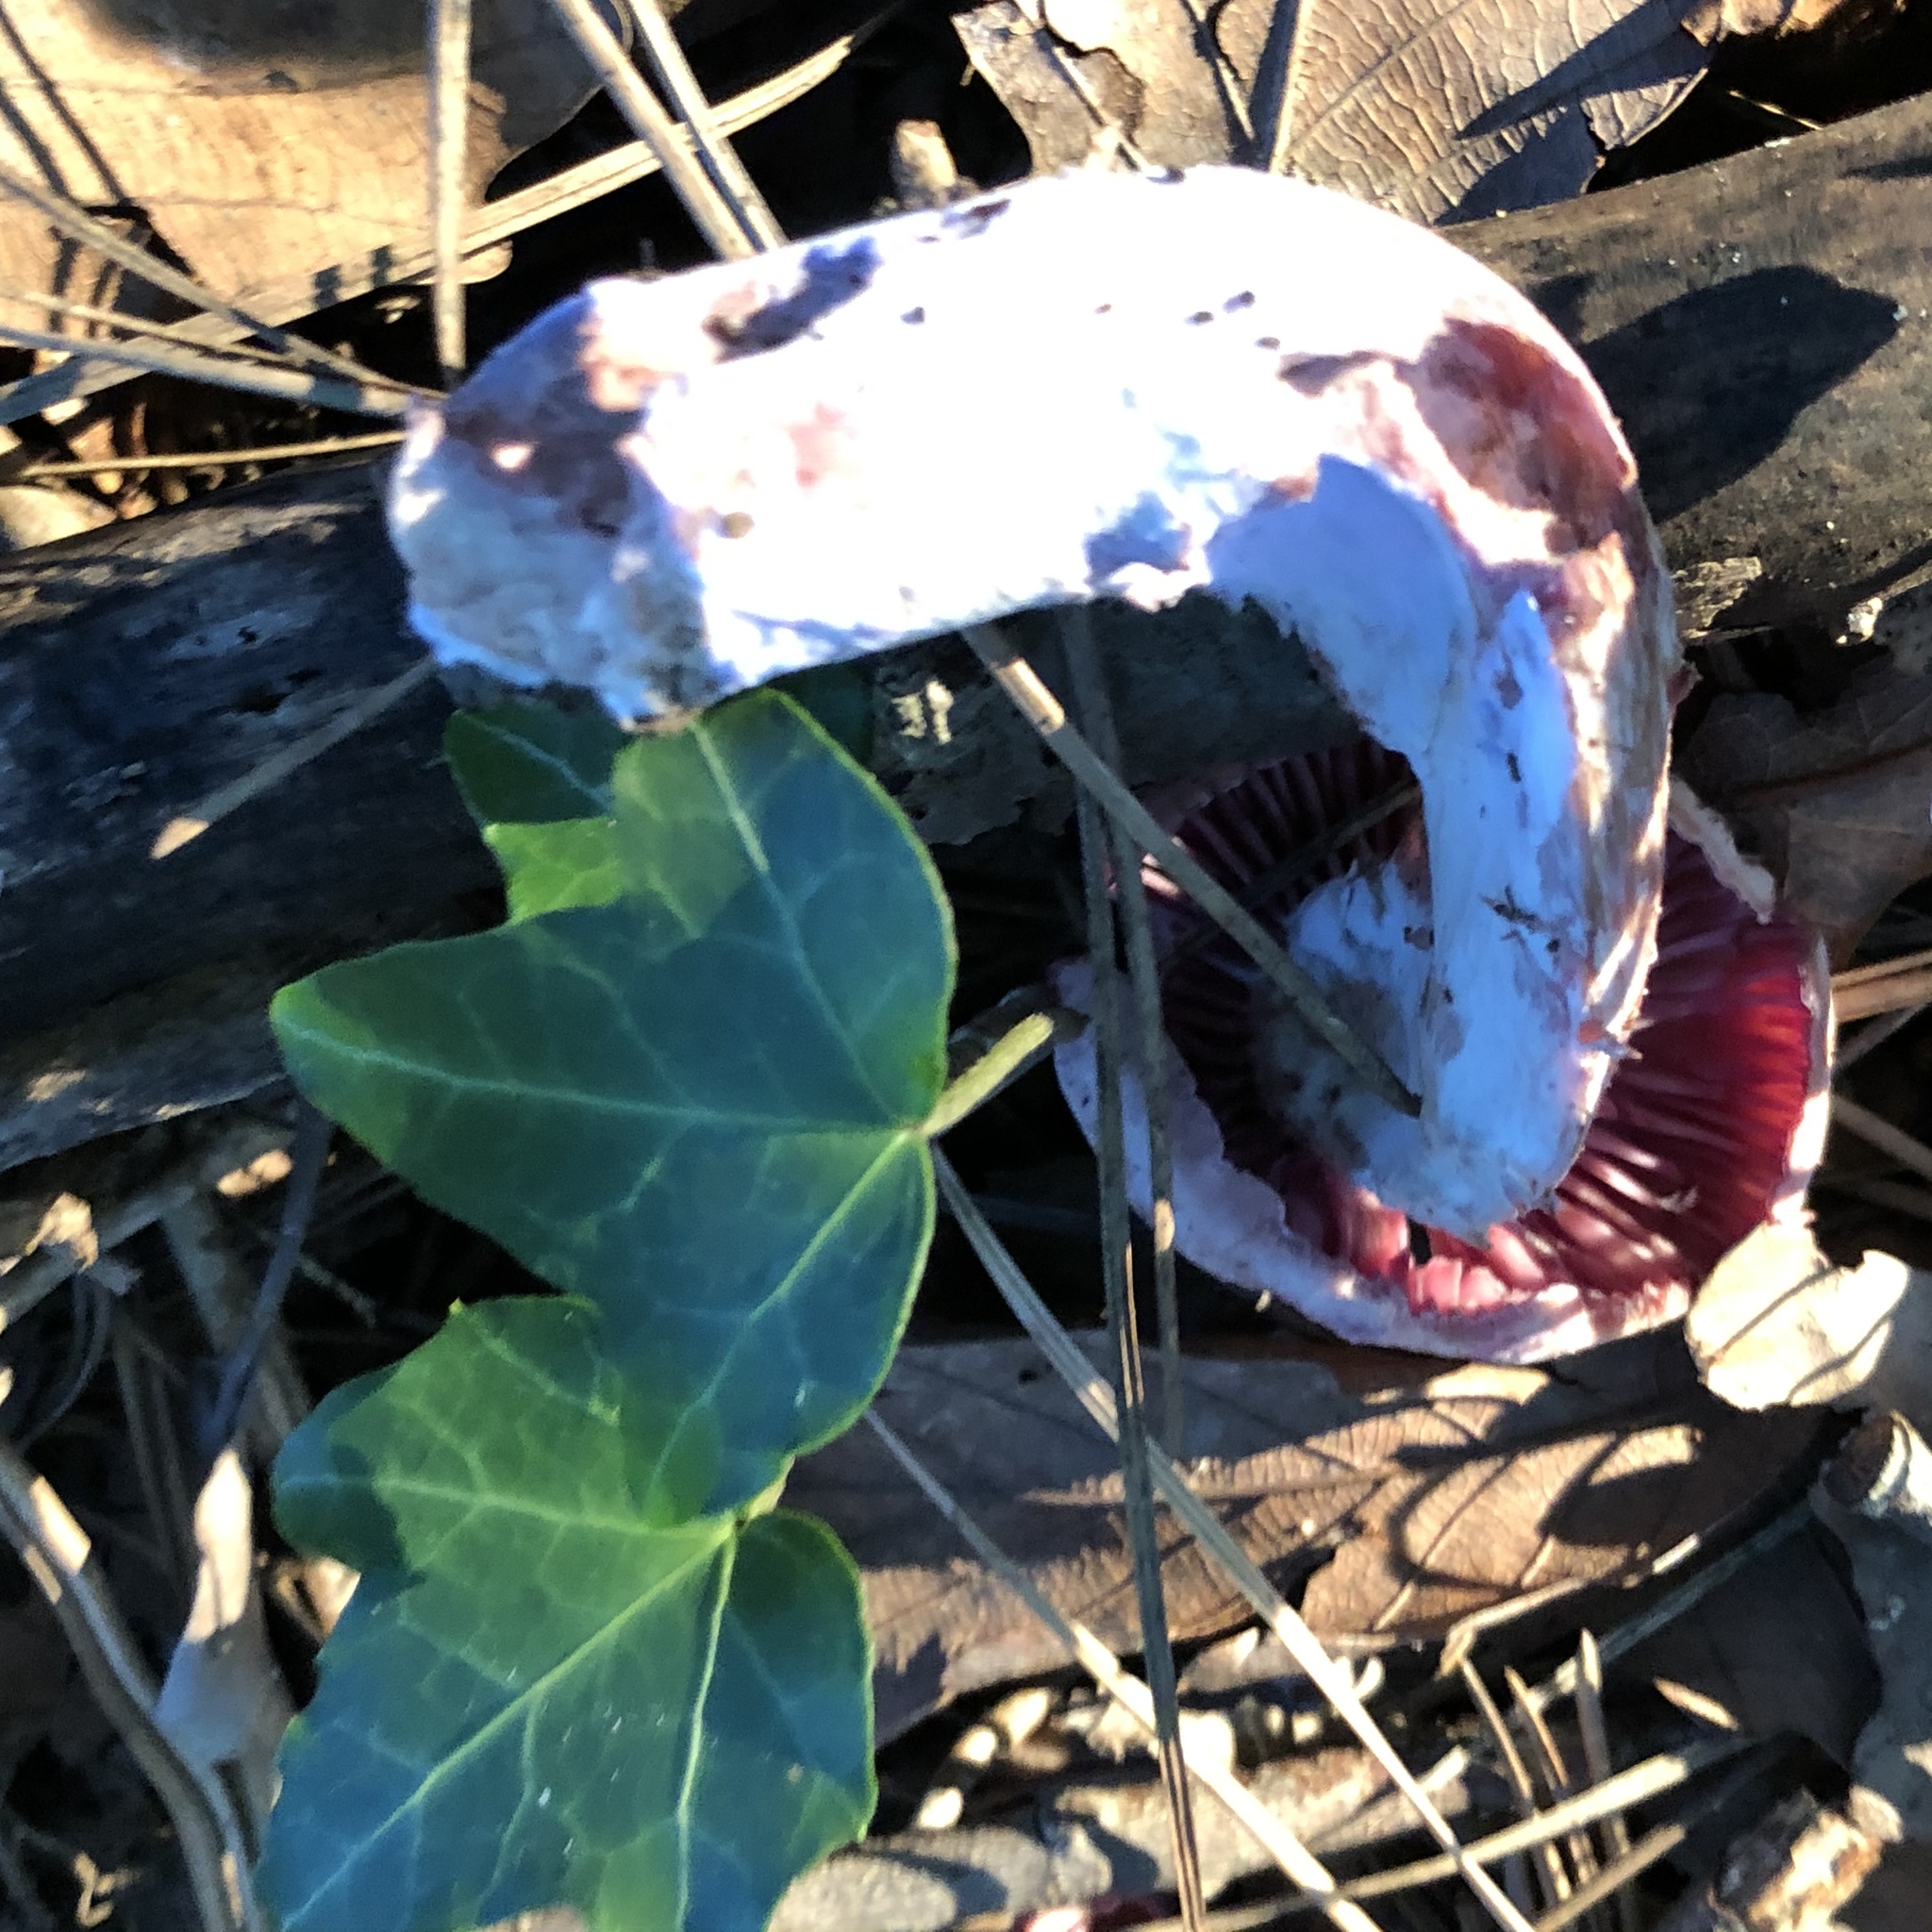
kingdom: Fungi
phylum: Basidiomycota
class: Agaricomycetes
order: Agaricales
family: Hydnangiaceae
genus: Laccaria
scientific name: Laccaria ochropurpurea
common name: Purple laccaria
